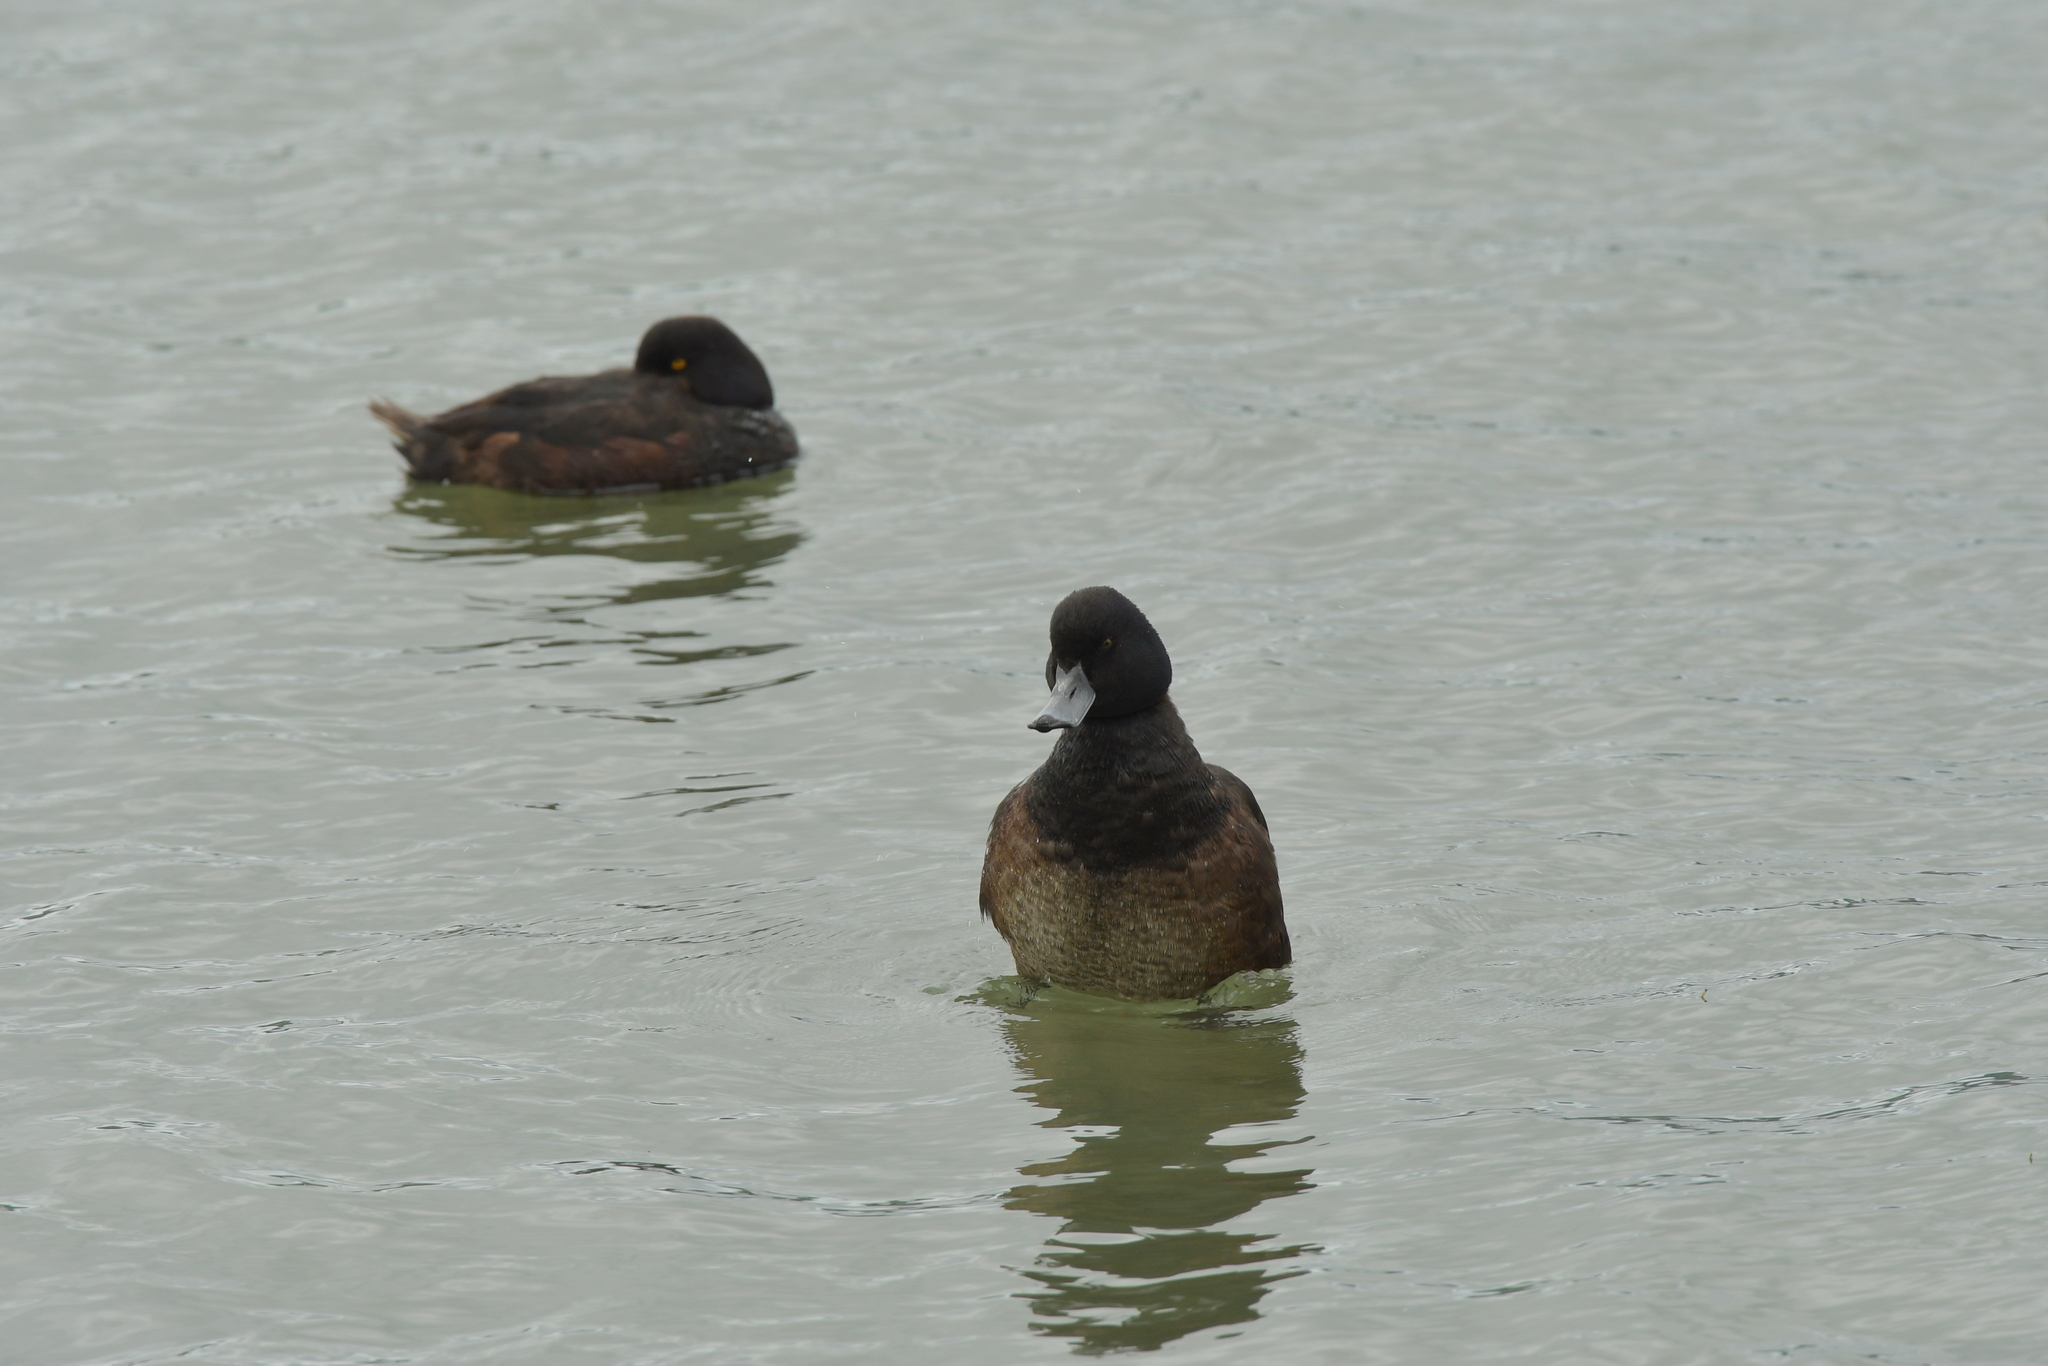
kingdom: Animalia
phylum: Chordata
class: Aves
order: Anseriformes
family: Anatidae
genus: Aythya
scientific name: Aythya novaeseelandiae
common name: New zealand scaup
